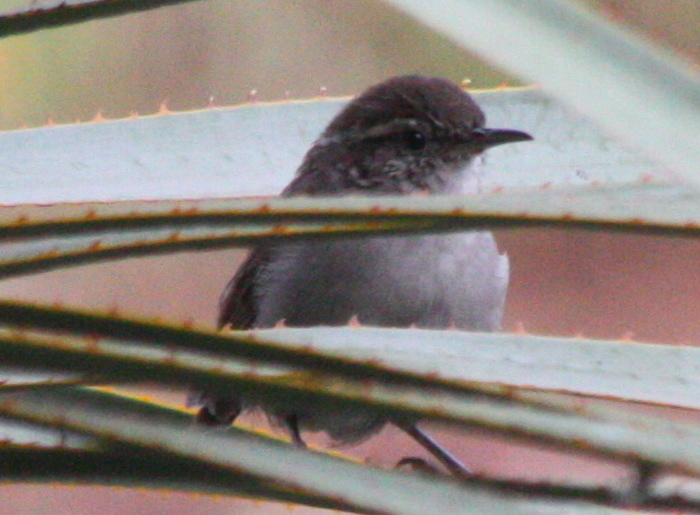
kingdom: Animalia
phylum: Chordata
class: Aves
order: Passeriformes
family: Troglodytidae
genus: Thryomanes
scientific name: Thryomanes bewickii
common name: Bewick's wren
